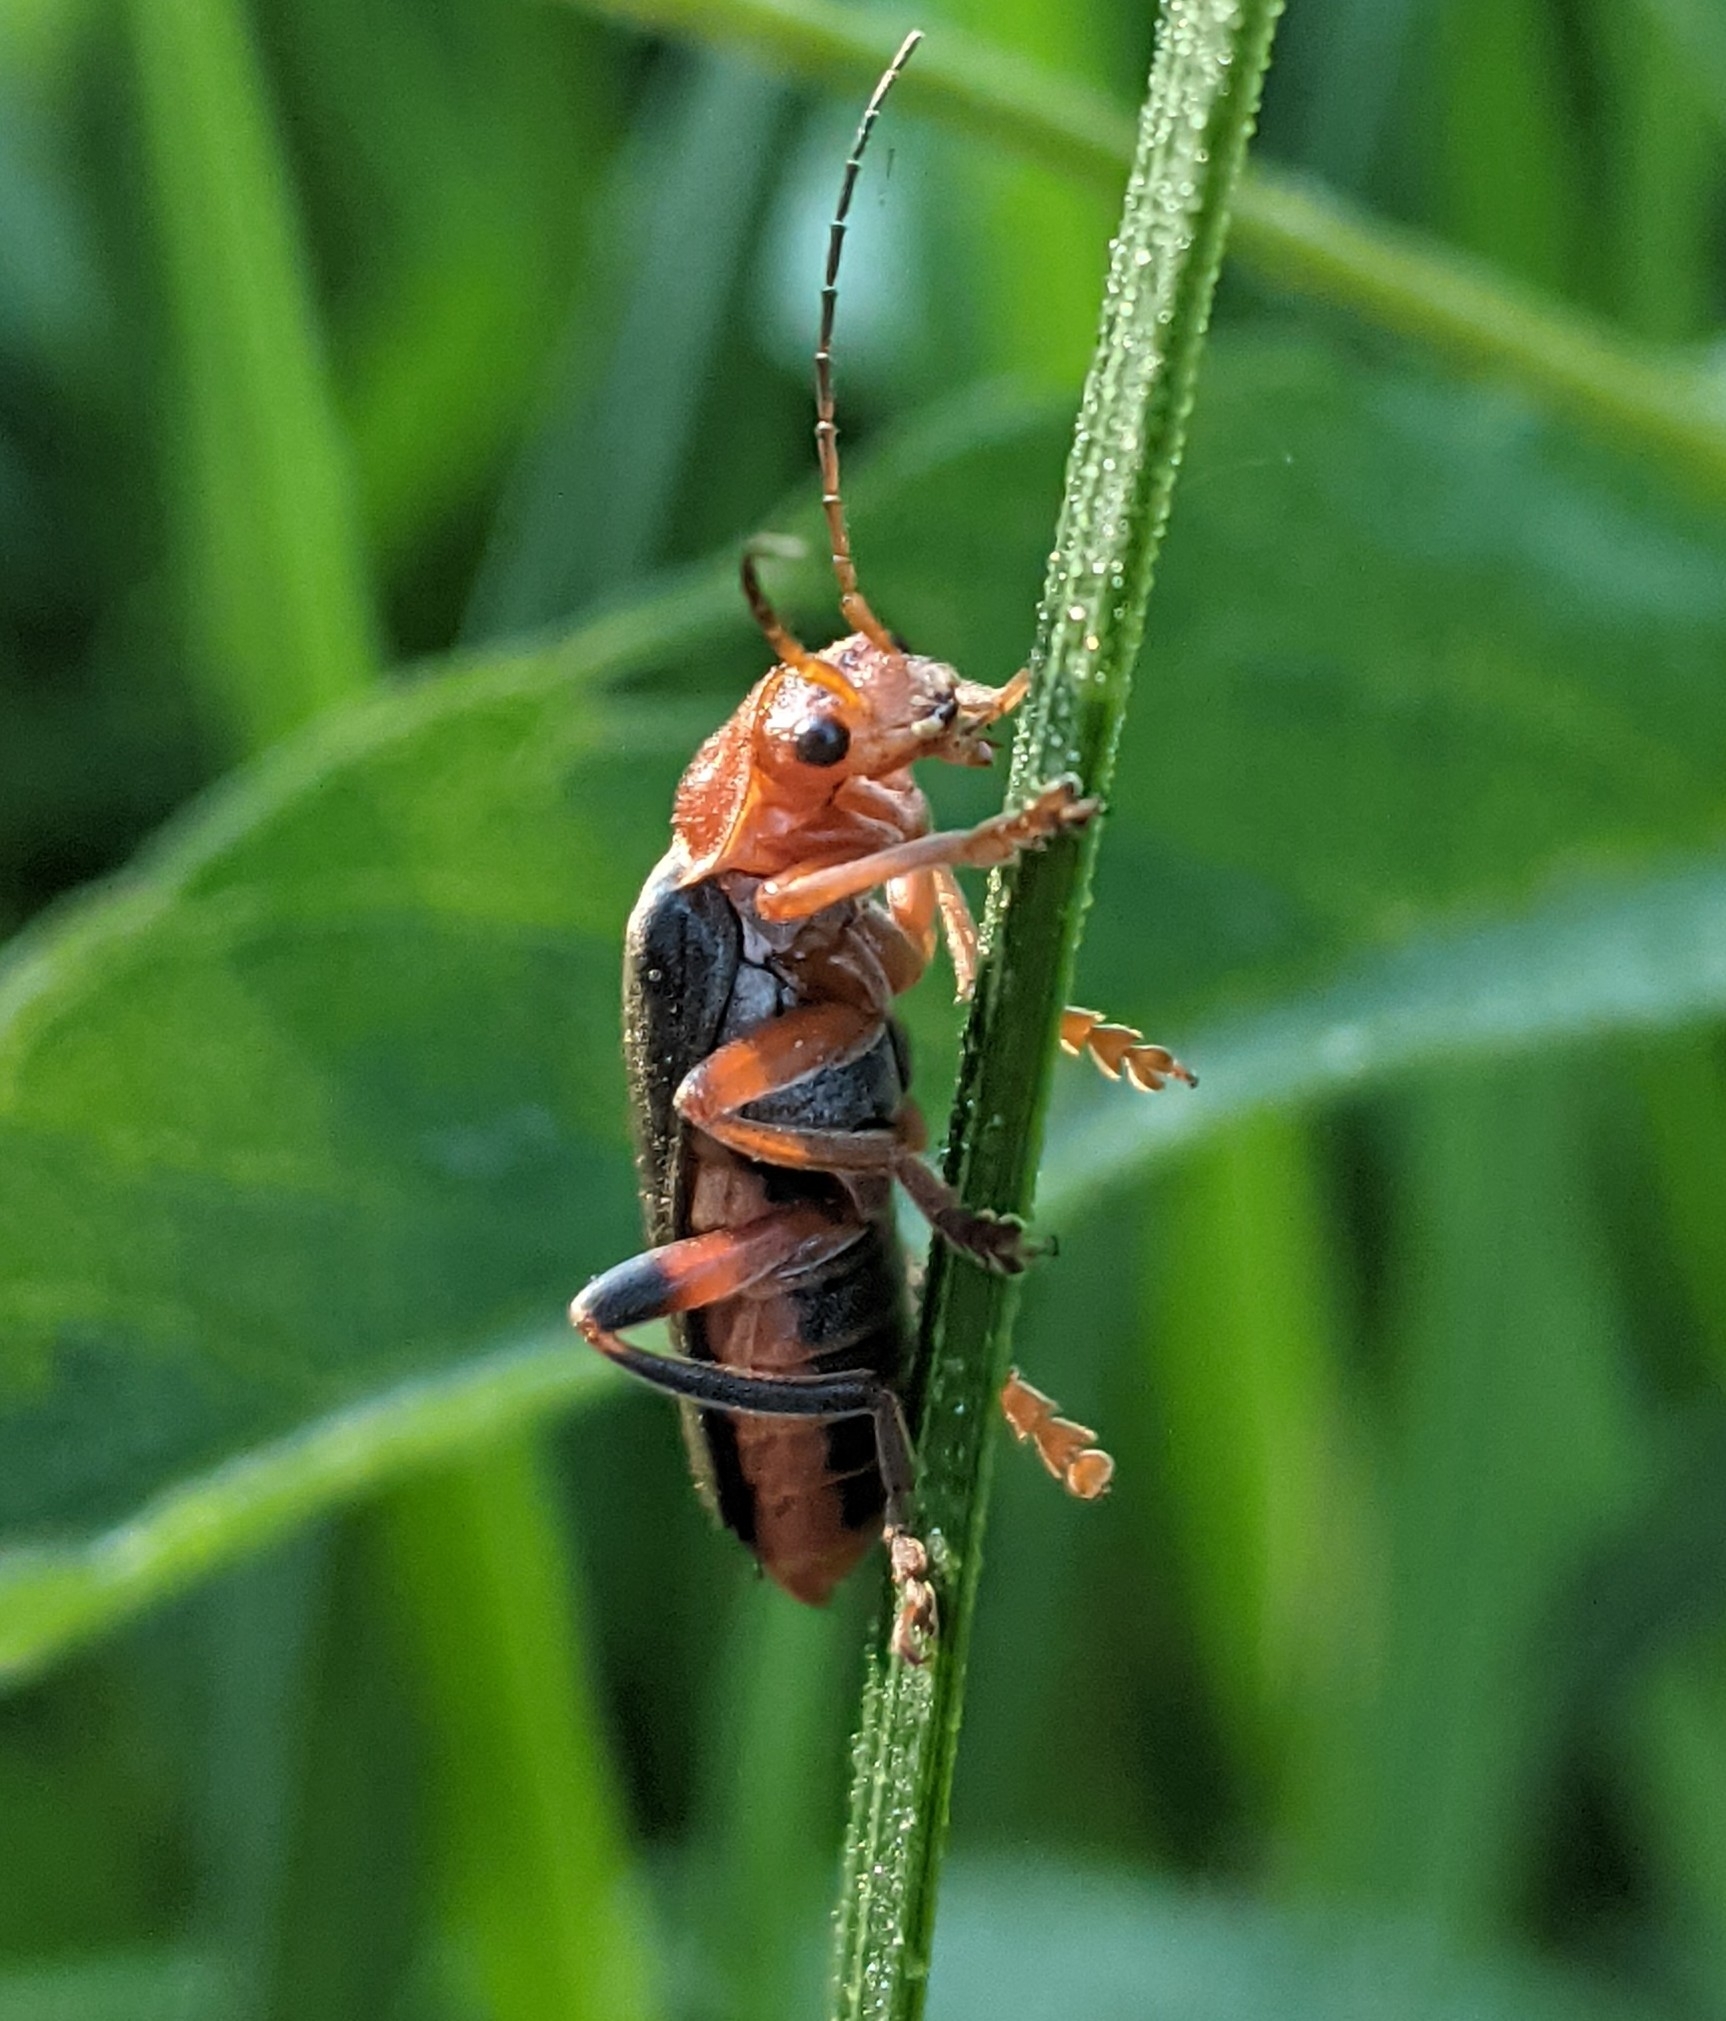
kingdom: Animalia
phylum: Arthropoda
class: Insecta
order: Coleoptera
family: Cantharidae
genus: Cantharis
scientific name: Cantharis livida
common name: Livid soldier beetle
